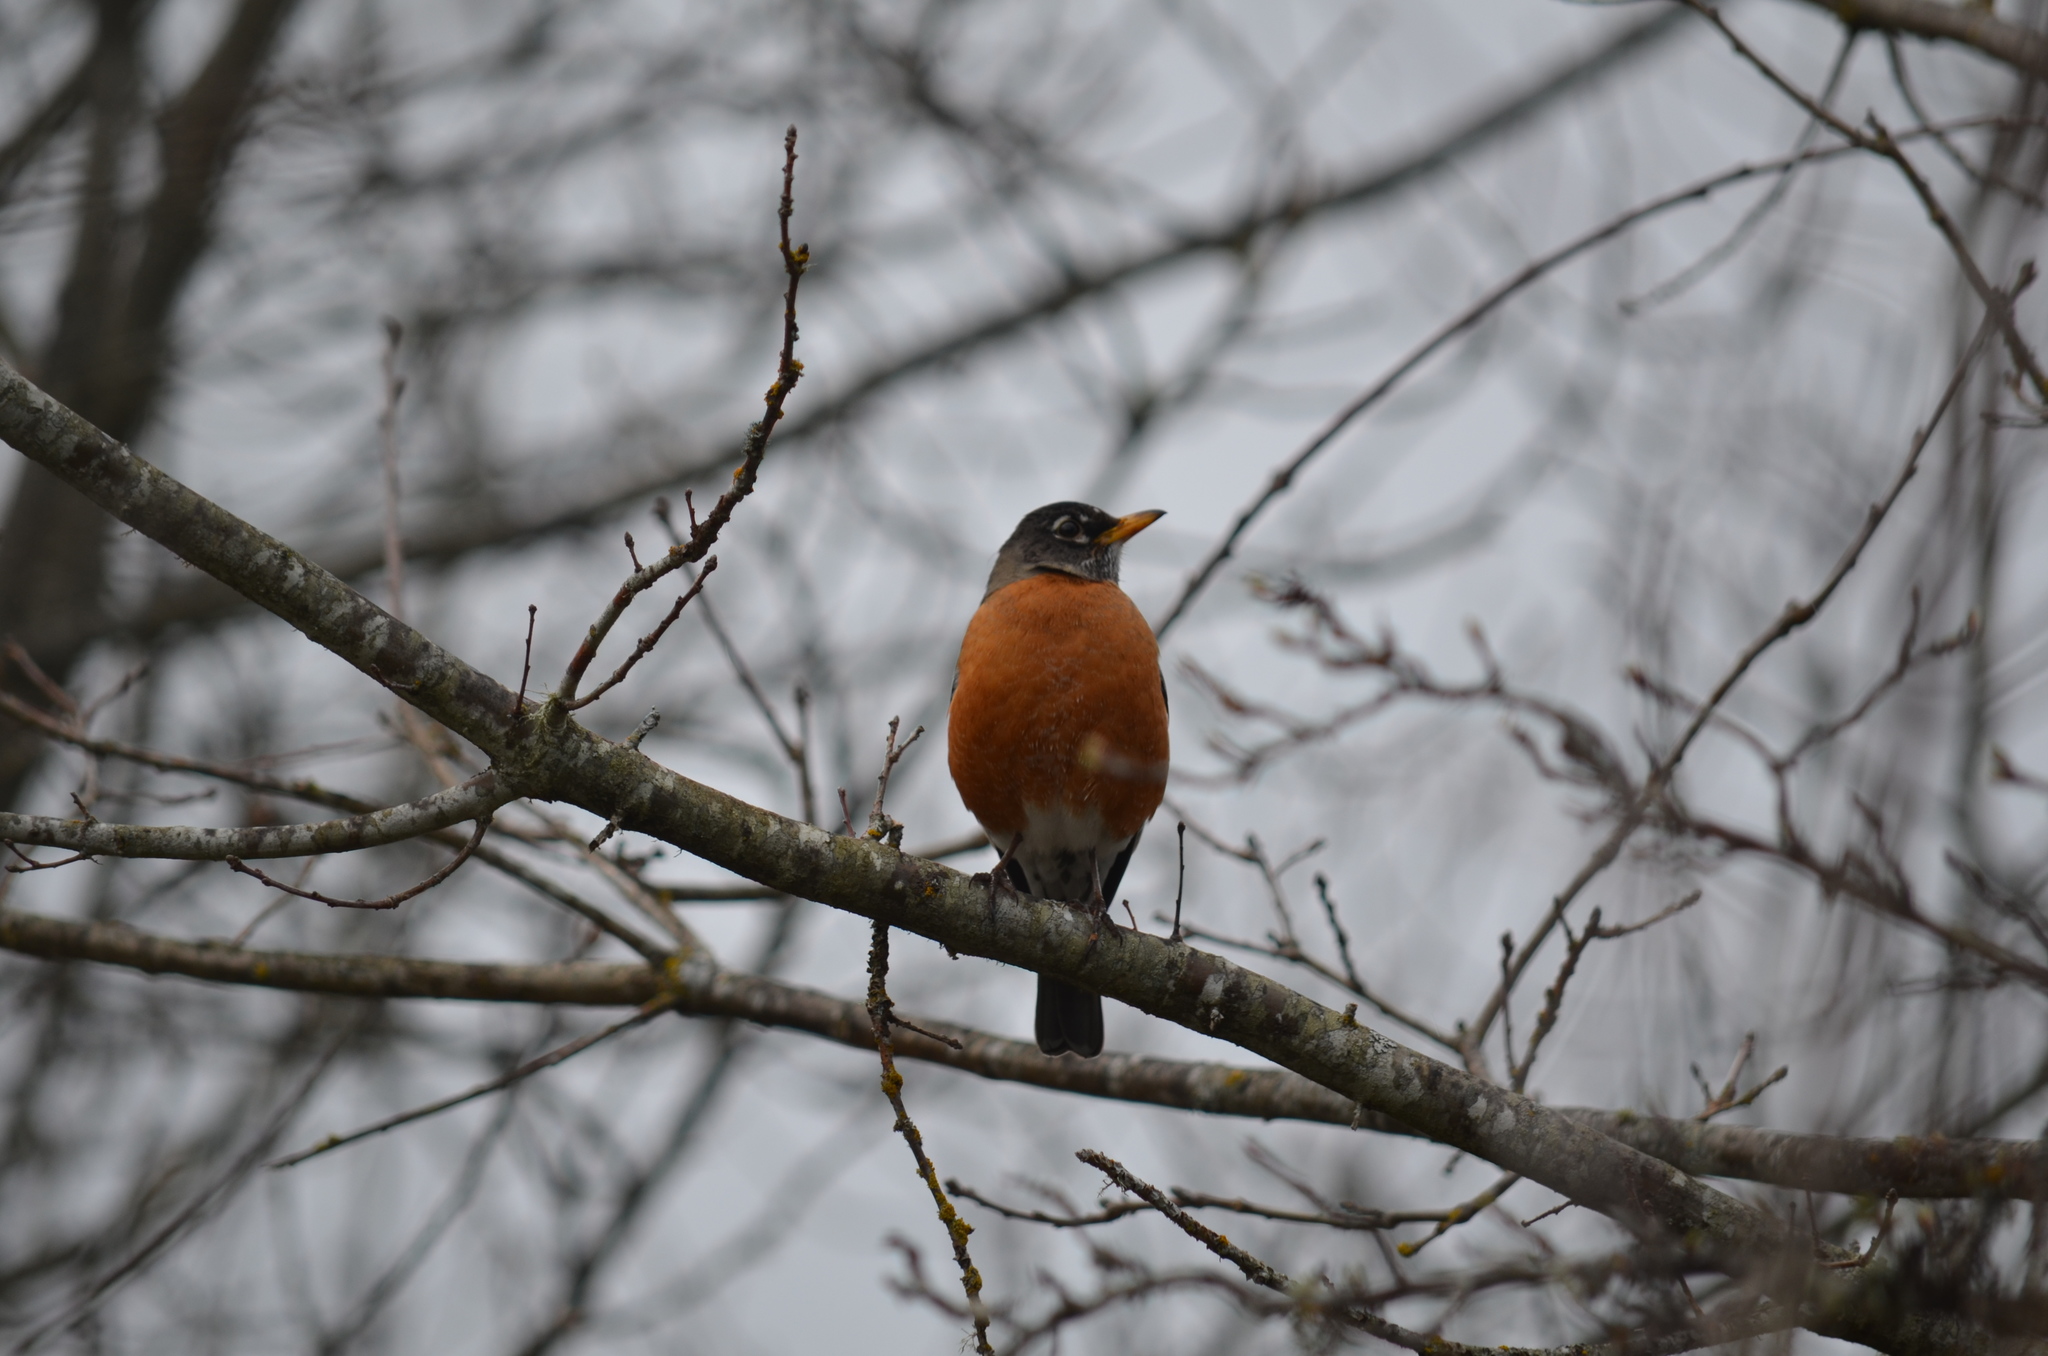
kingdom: Animalia
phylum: Chordata
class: Aves
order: Passeriformes
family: Turdidae
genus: Turdus
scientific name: Turdus migratorius
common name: American robin
